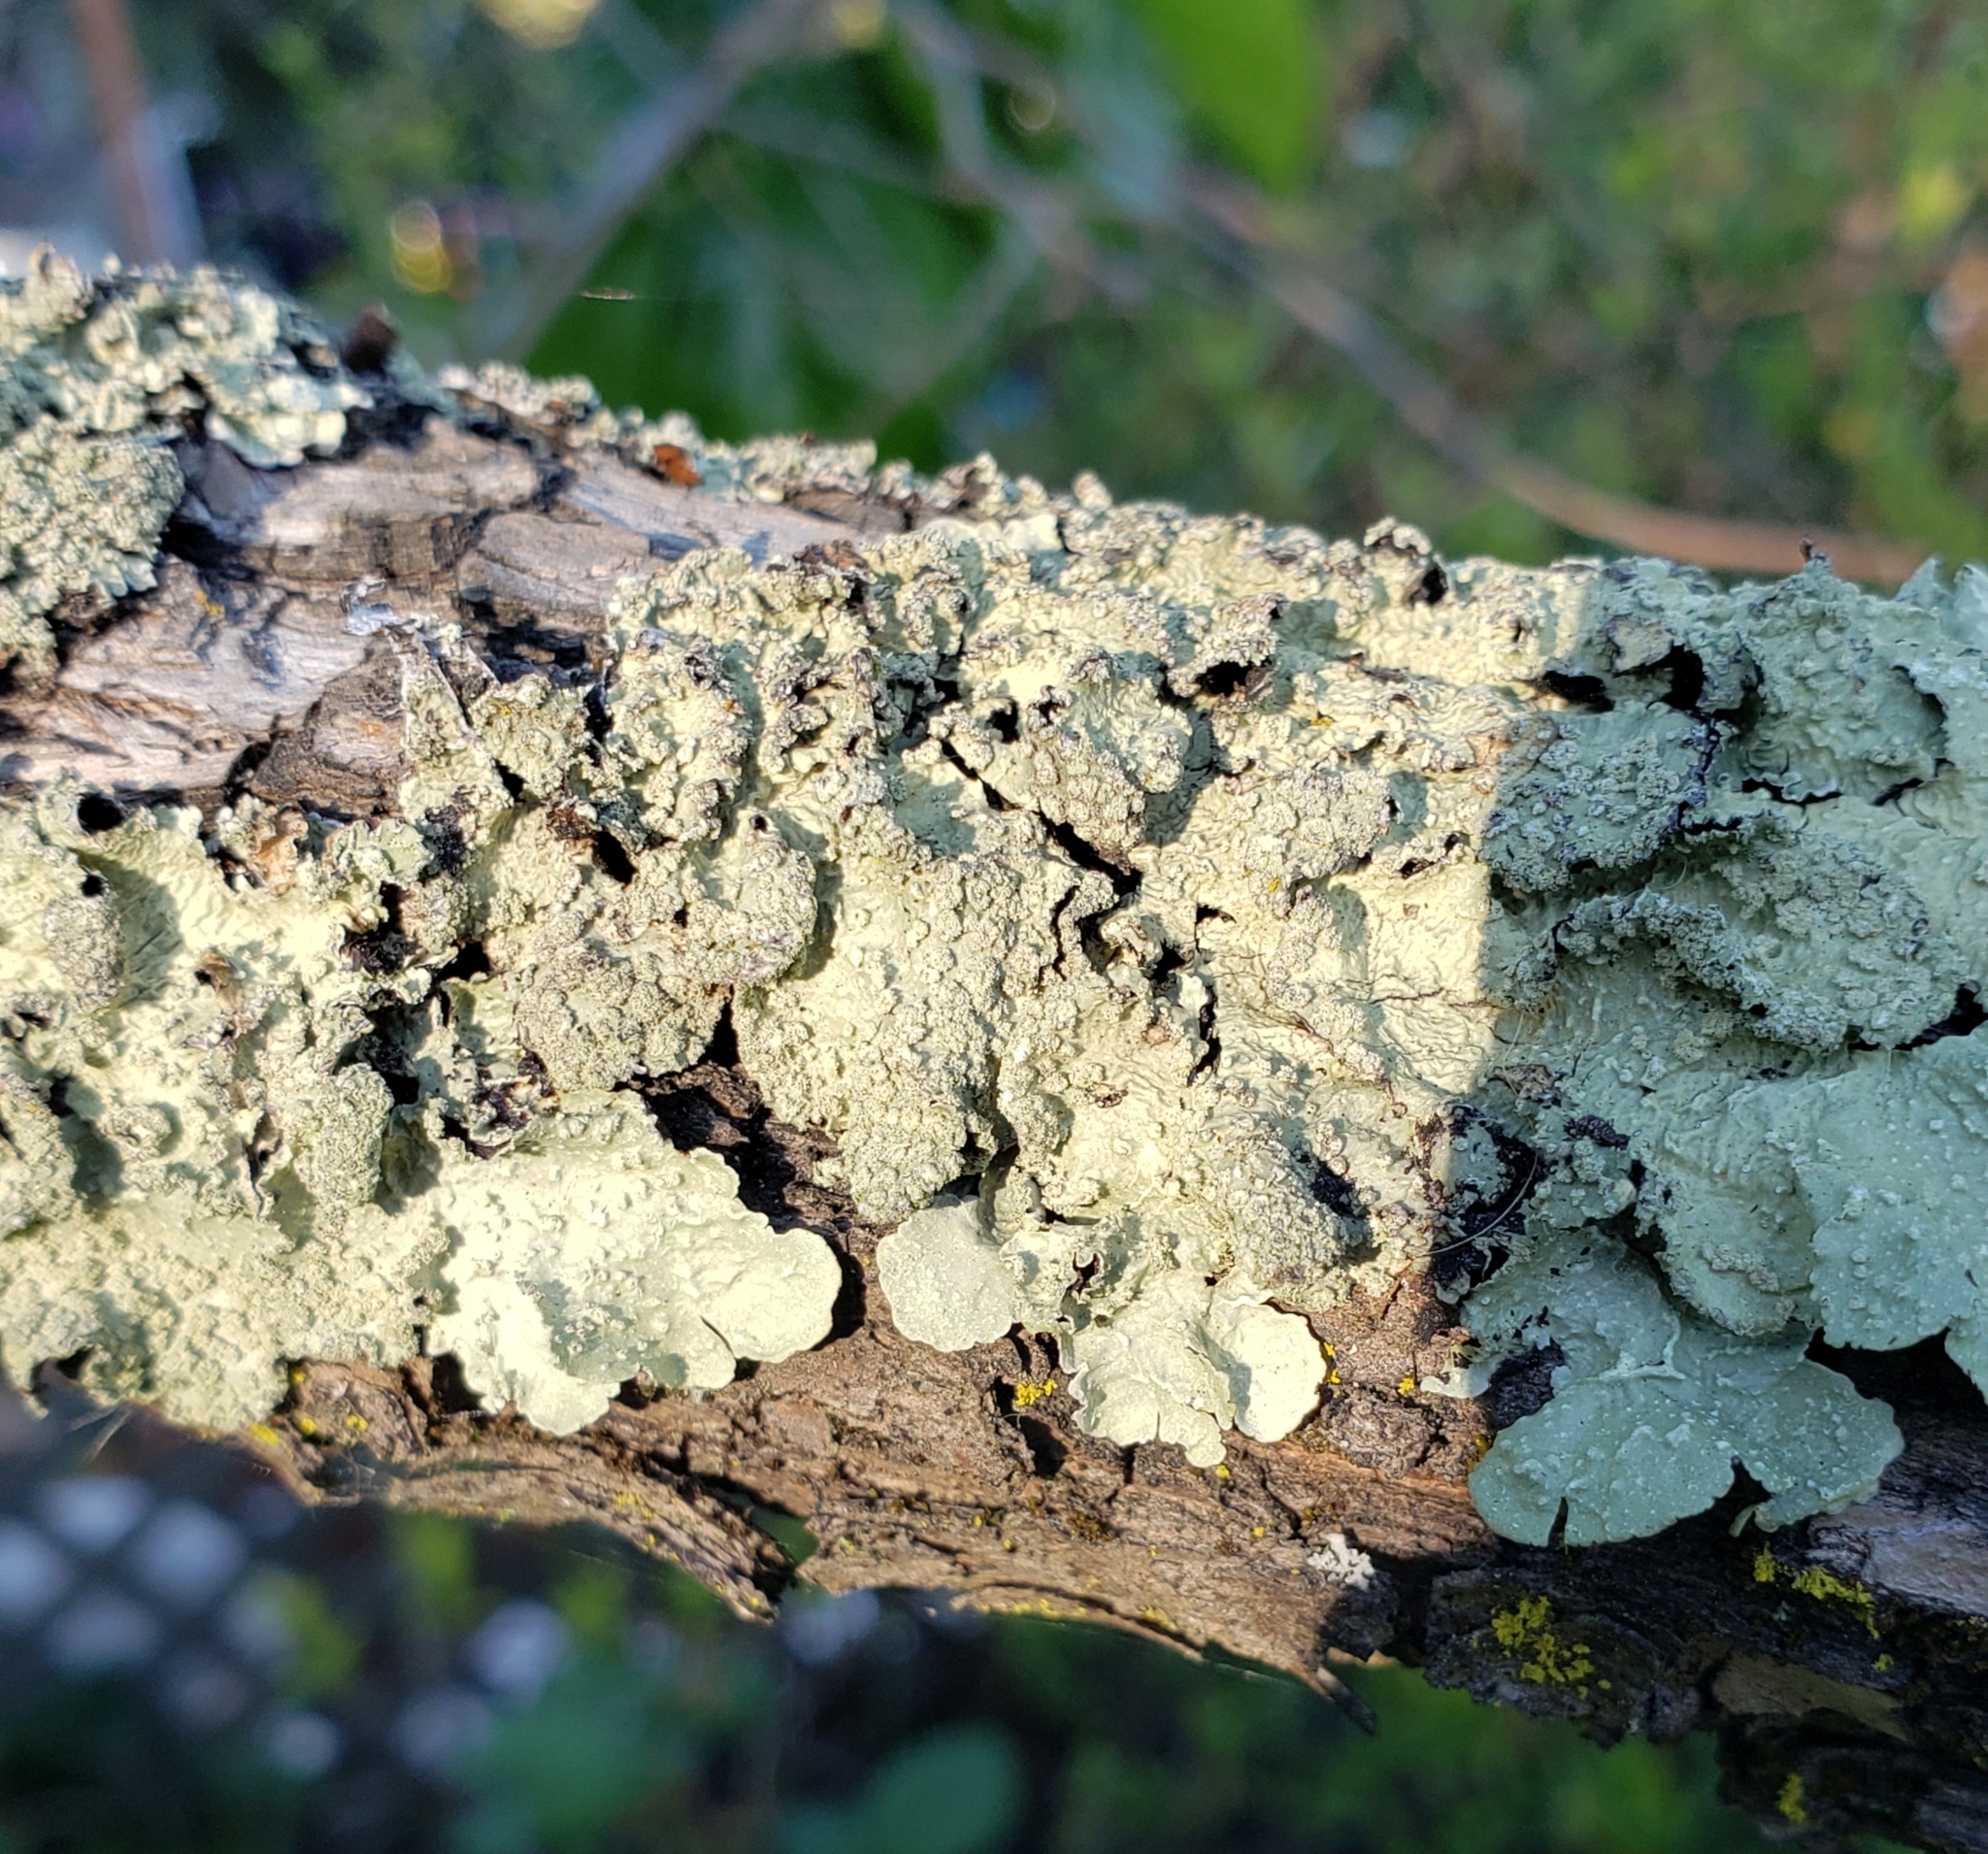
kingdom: Fungi
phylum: Ascomycota
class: Lecanoromycetes
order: Lecanorales
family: Parmeliaceae
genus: Flavopunctelia
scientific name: Flavopunctelia flaventior
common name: Speckled greenshield
